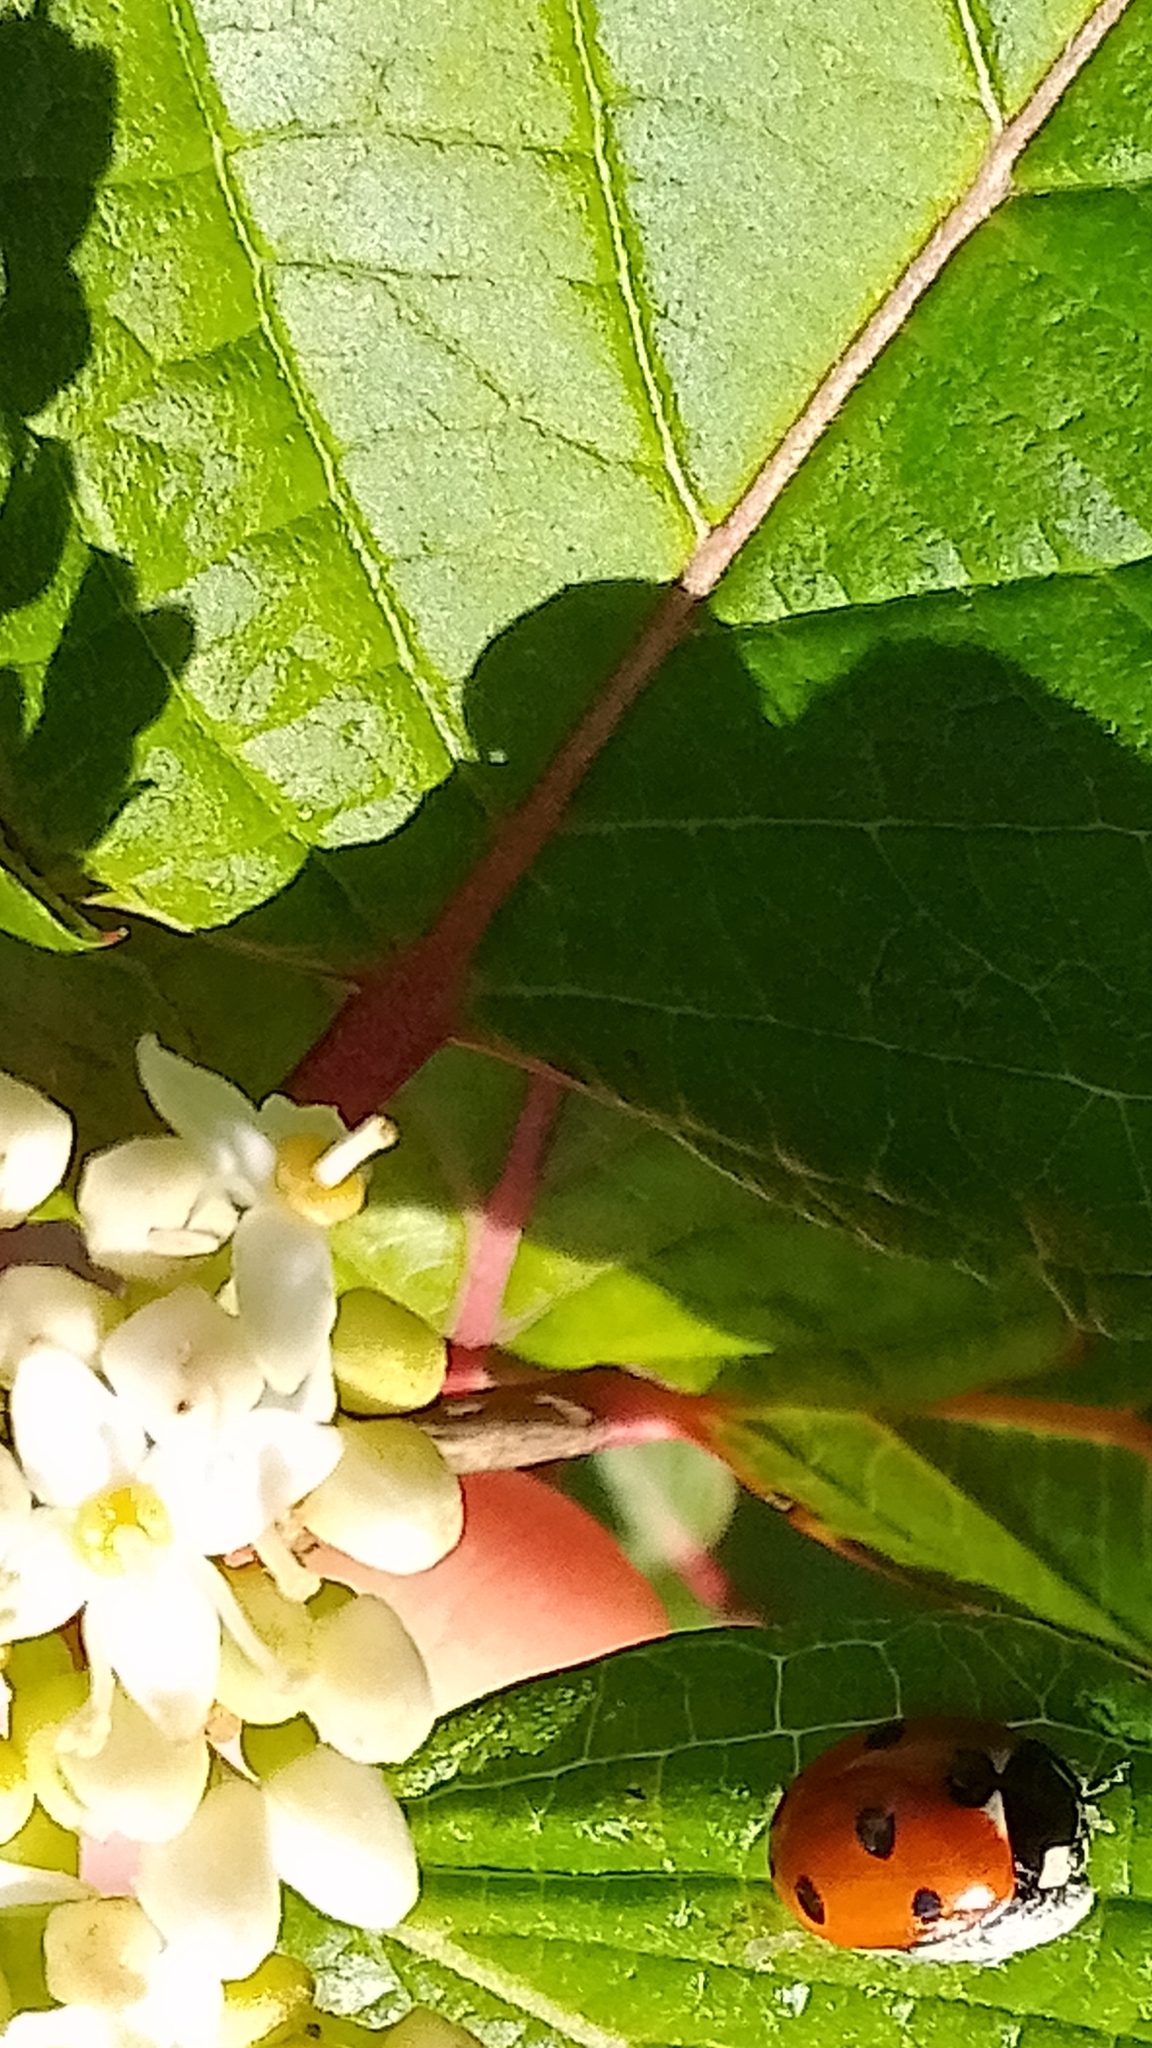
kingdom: Animalia
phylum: Arthropoda
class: Insecta
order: Hymenoptera
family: Braconidae
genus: Dinocampus
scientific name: Dinocampus coccinellae
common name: Braconid wasp
